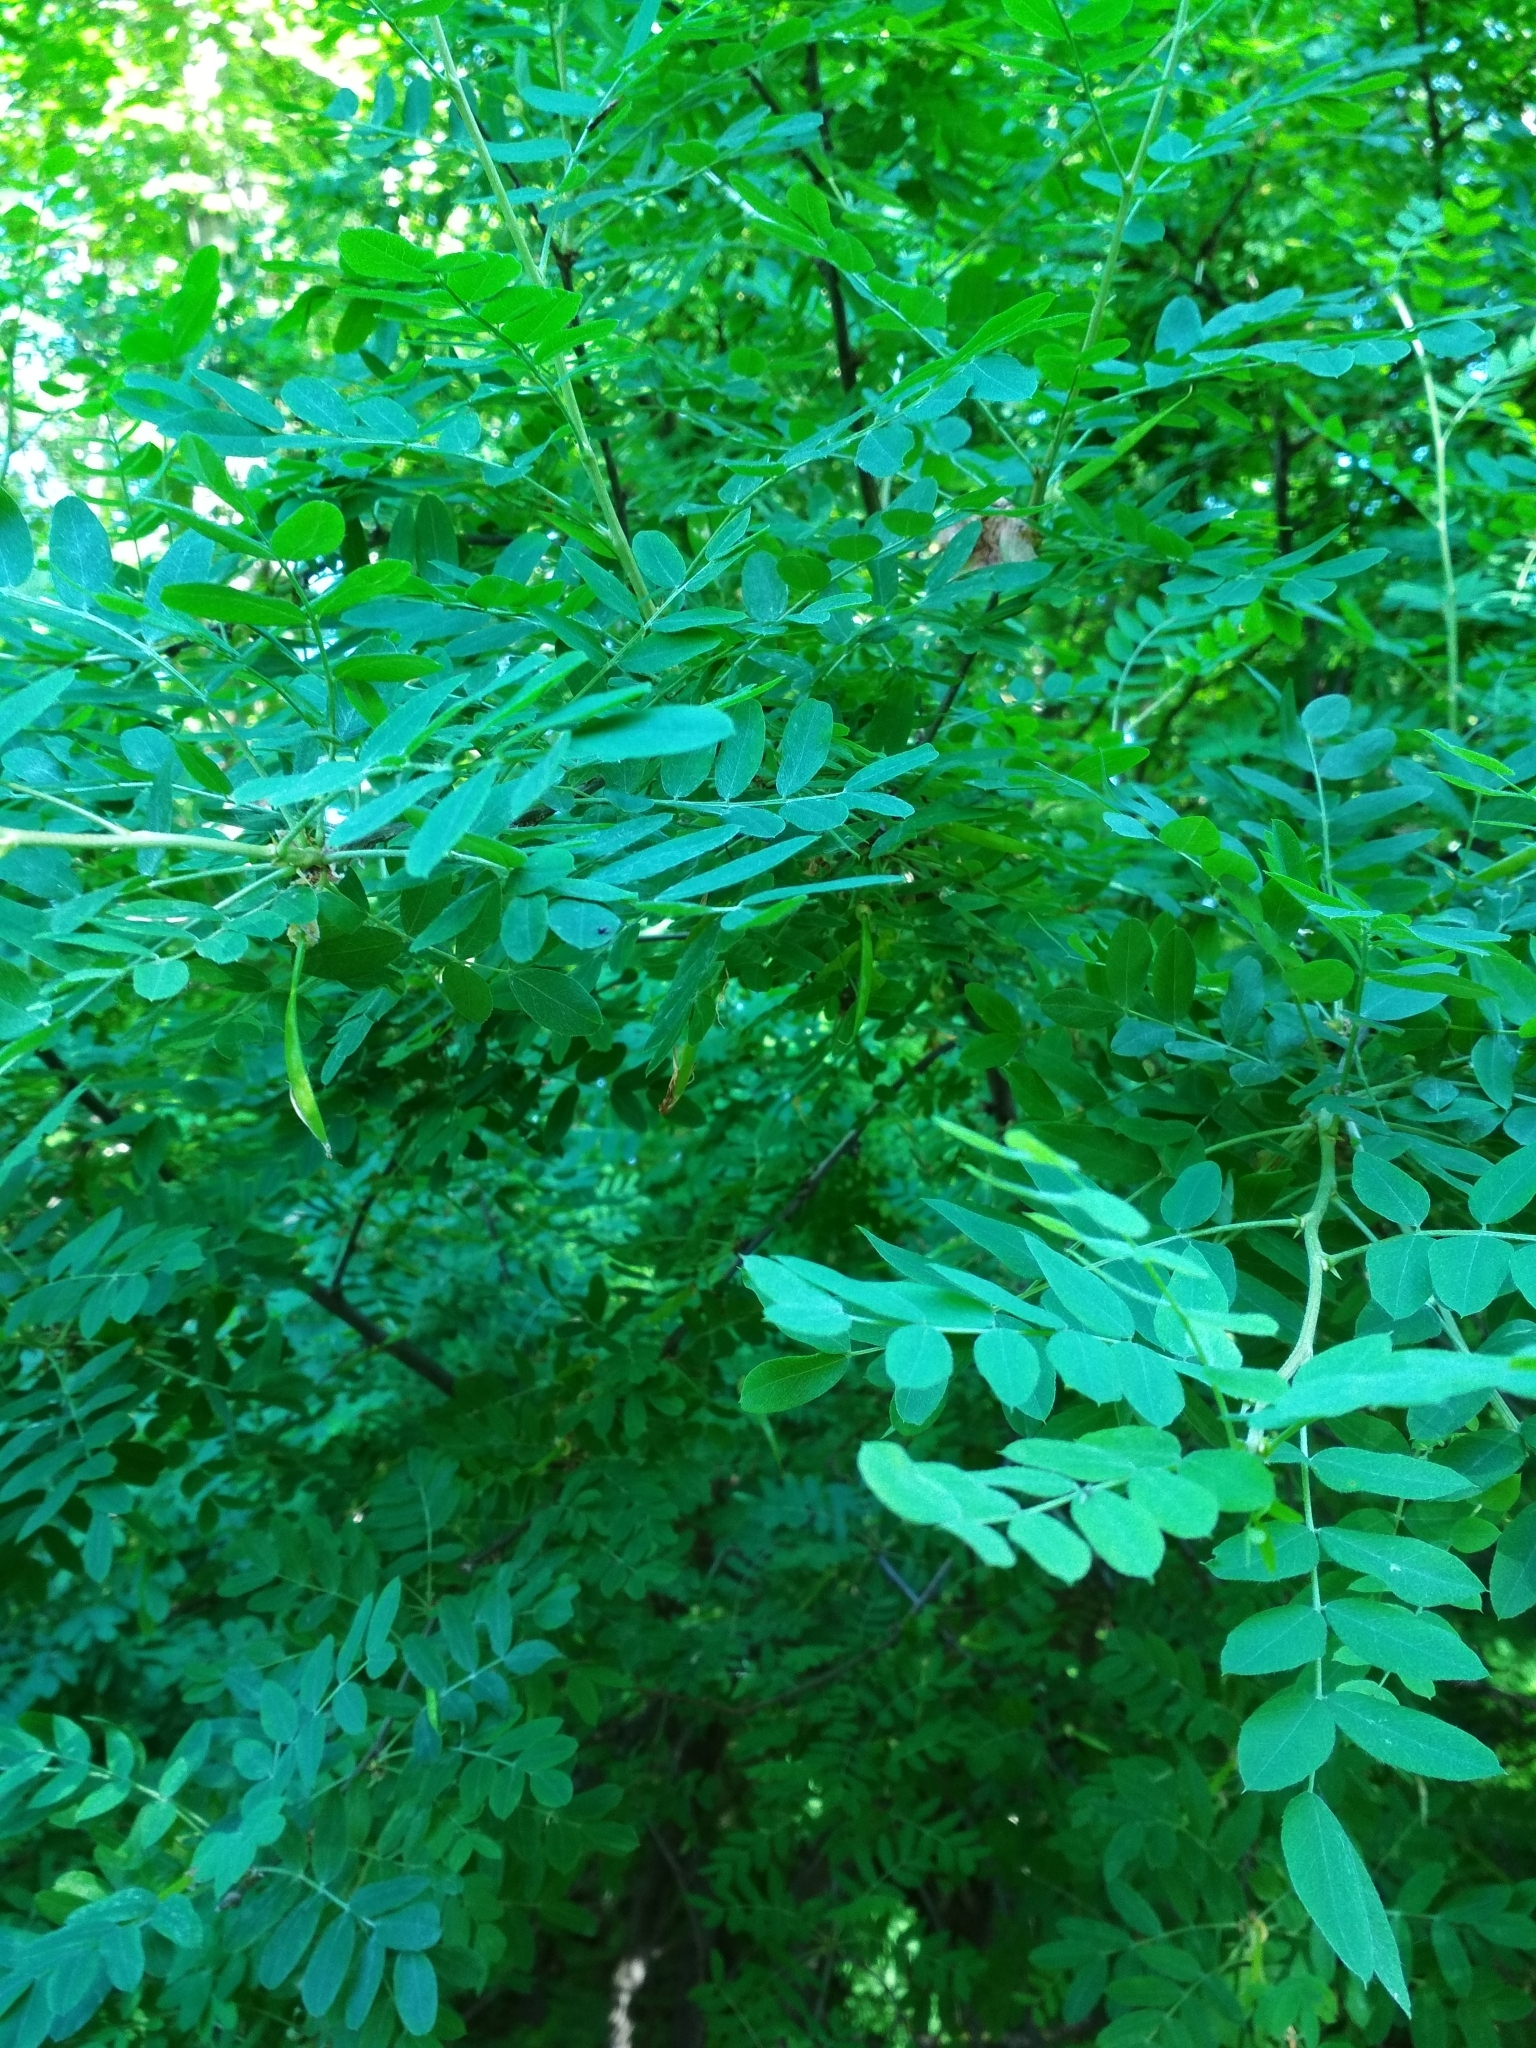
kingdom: Plantae
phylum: Tracheophyta
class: Magnoliopsida
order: Fabales
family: Fabaceae
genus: Caragana
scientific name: Caragana arborescens
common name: Siberian peashrub
